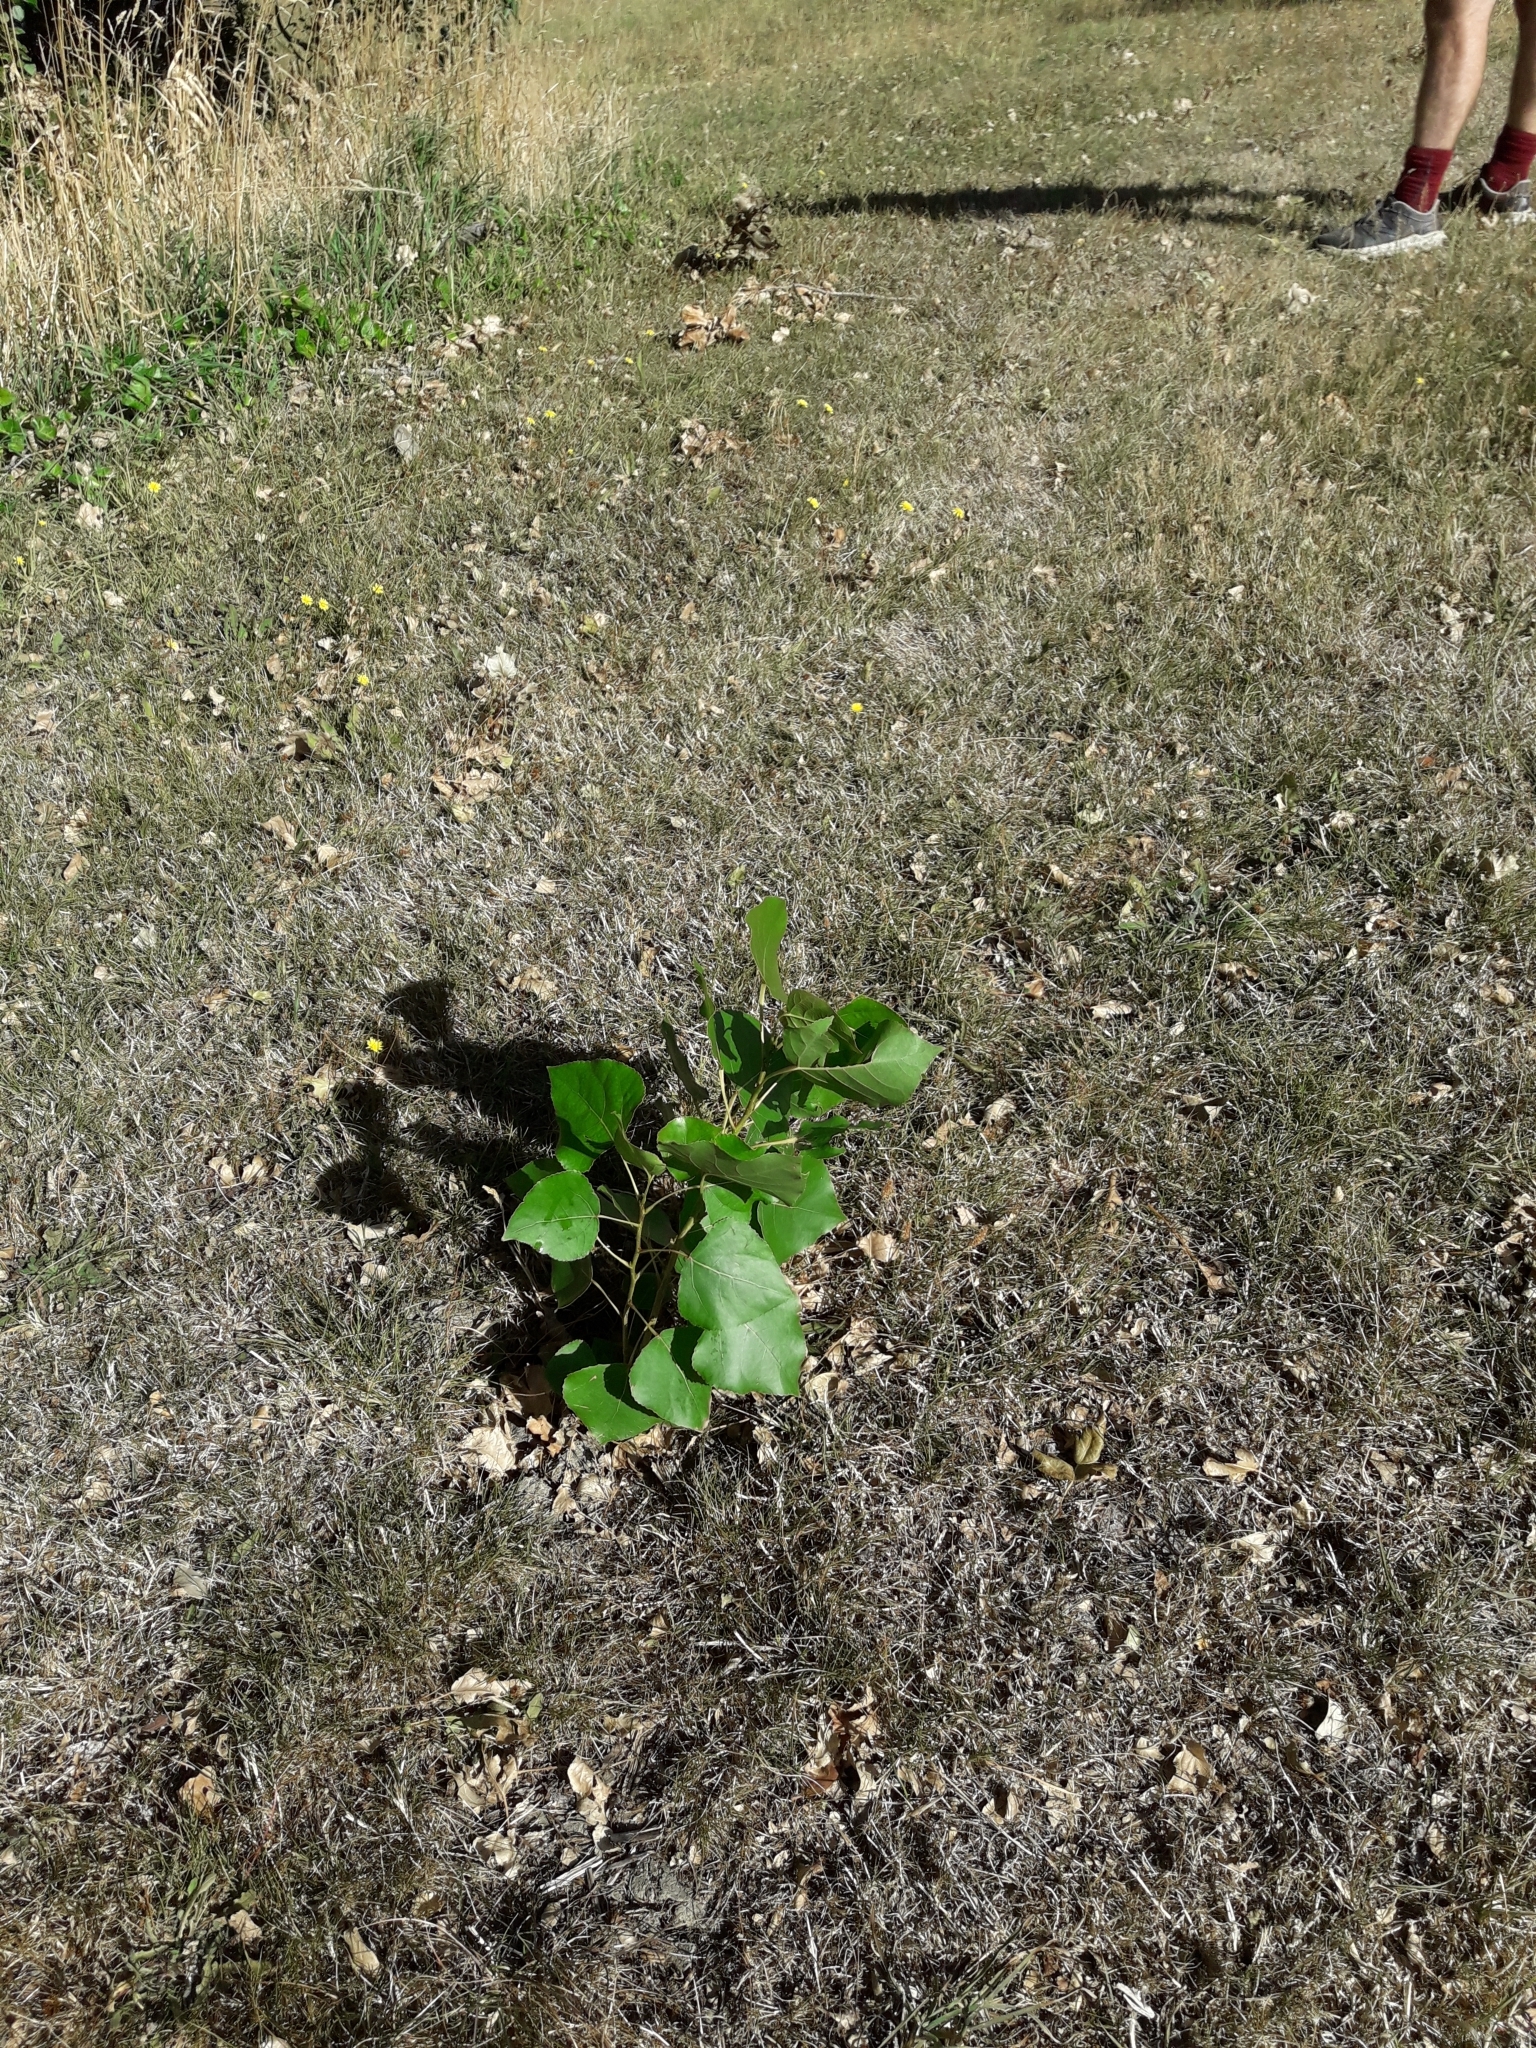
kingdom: Plantae
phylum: Tracheophyta
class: Magnoliopsida
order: Malpighiales
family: Salicaceae
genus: Populus
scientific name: Populus nigra
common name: Black poplar
